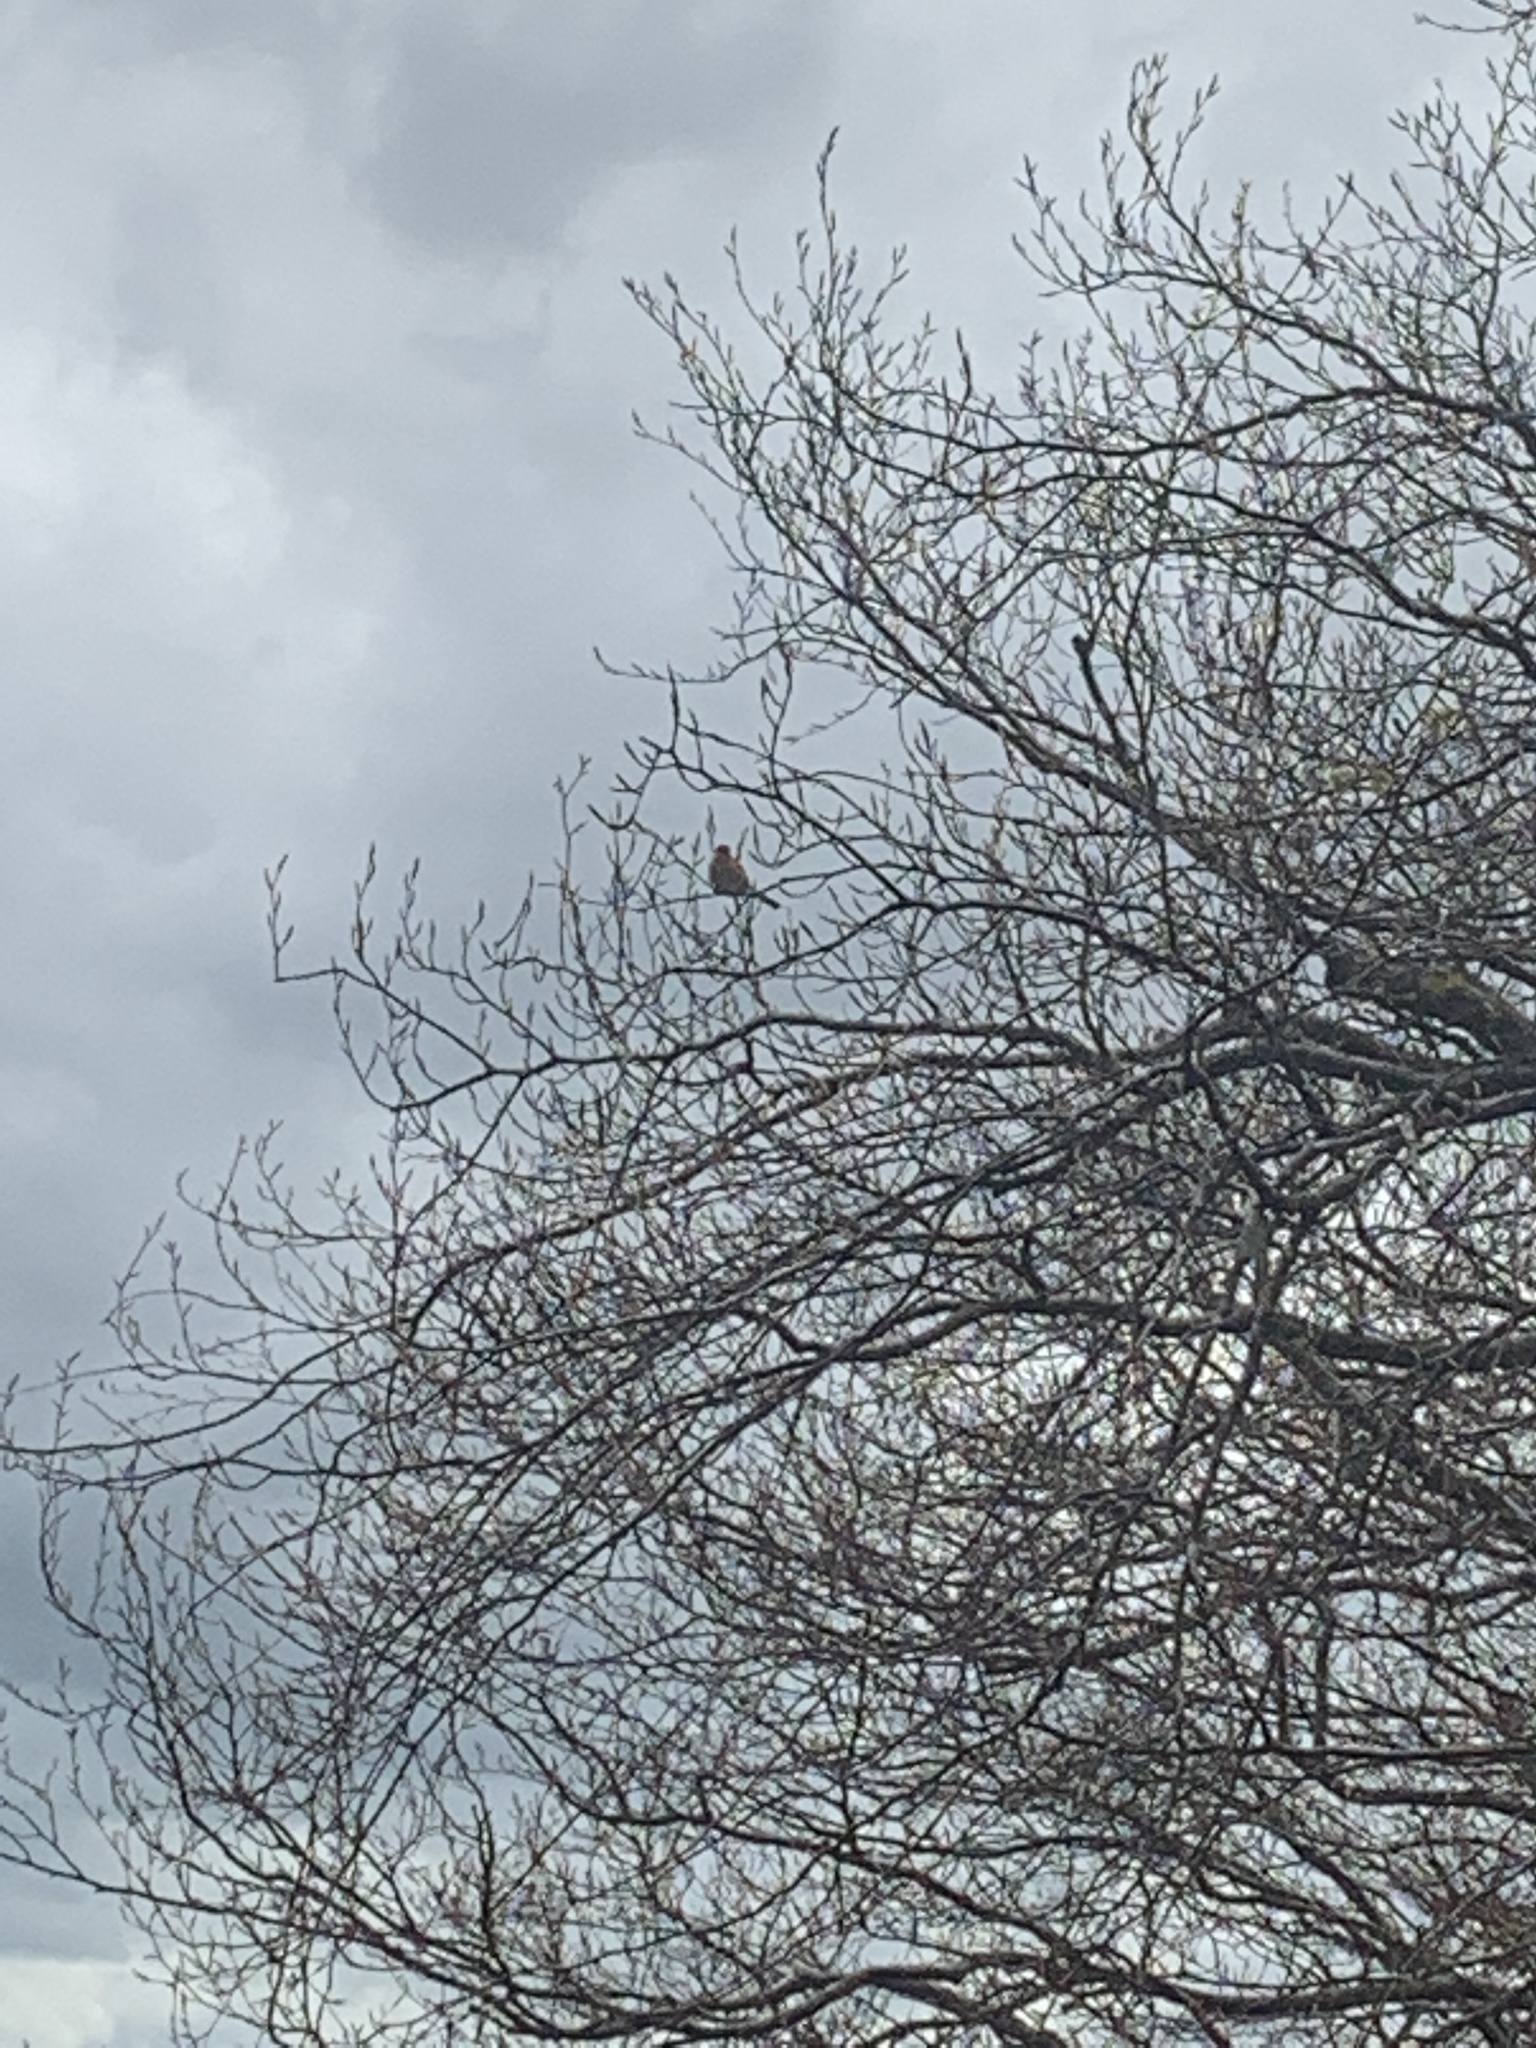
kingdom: Animalia
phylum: Chordata
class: Aves
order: Passeriformes
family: Fringillidae
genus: Fringilla
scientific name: Fringilla coelebs
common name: Common chaffinch
